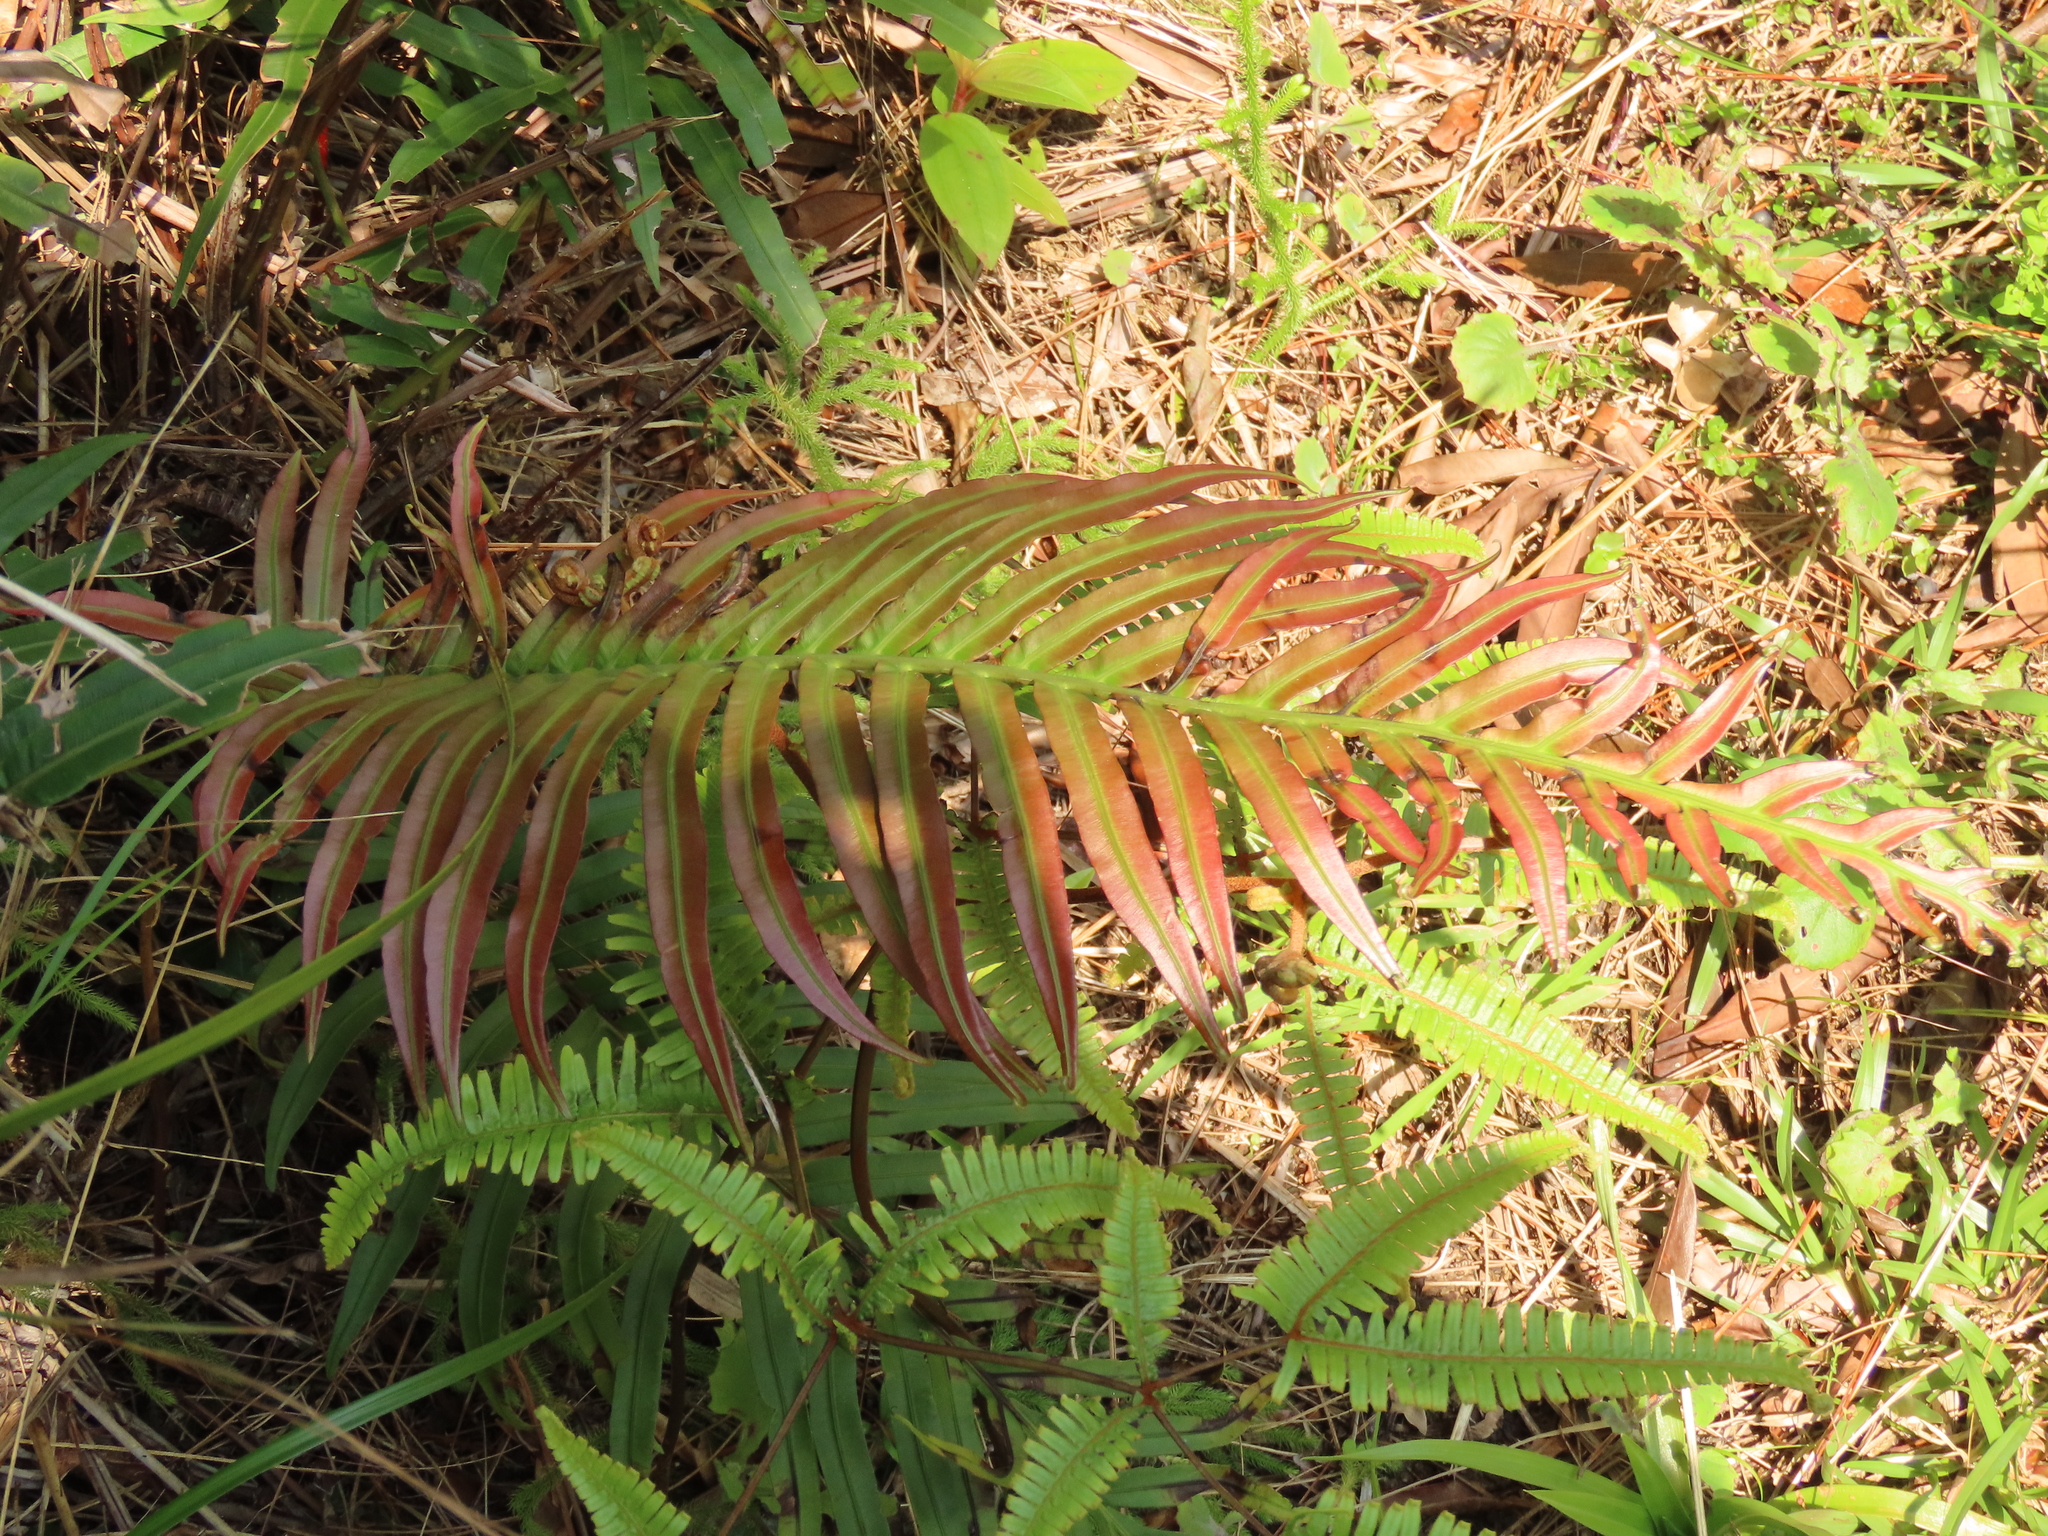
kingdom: Plantae
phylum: Tracheophyta
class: Polypodiopsida
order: Polypodiales
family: Blechnaceae
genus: Blechnopsis
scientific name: Blechnopsis orientalis
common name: Oriental blechnum
